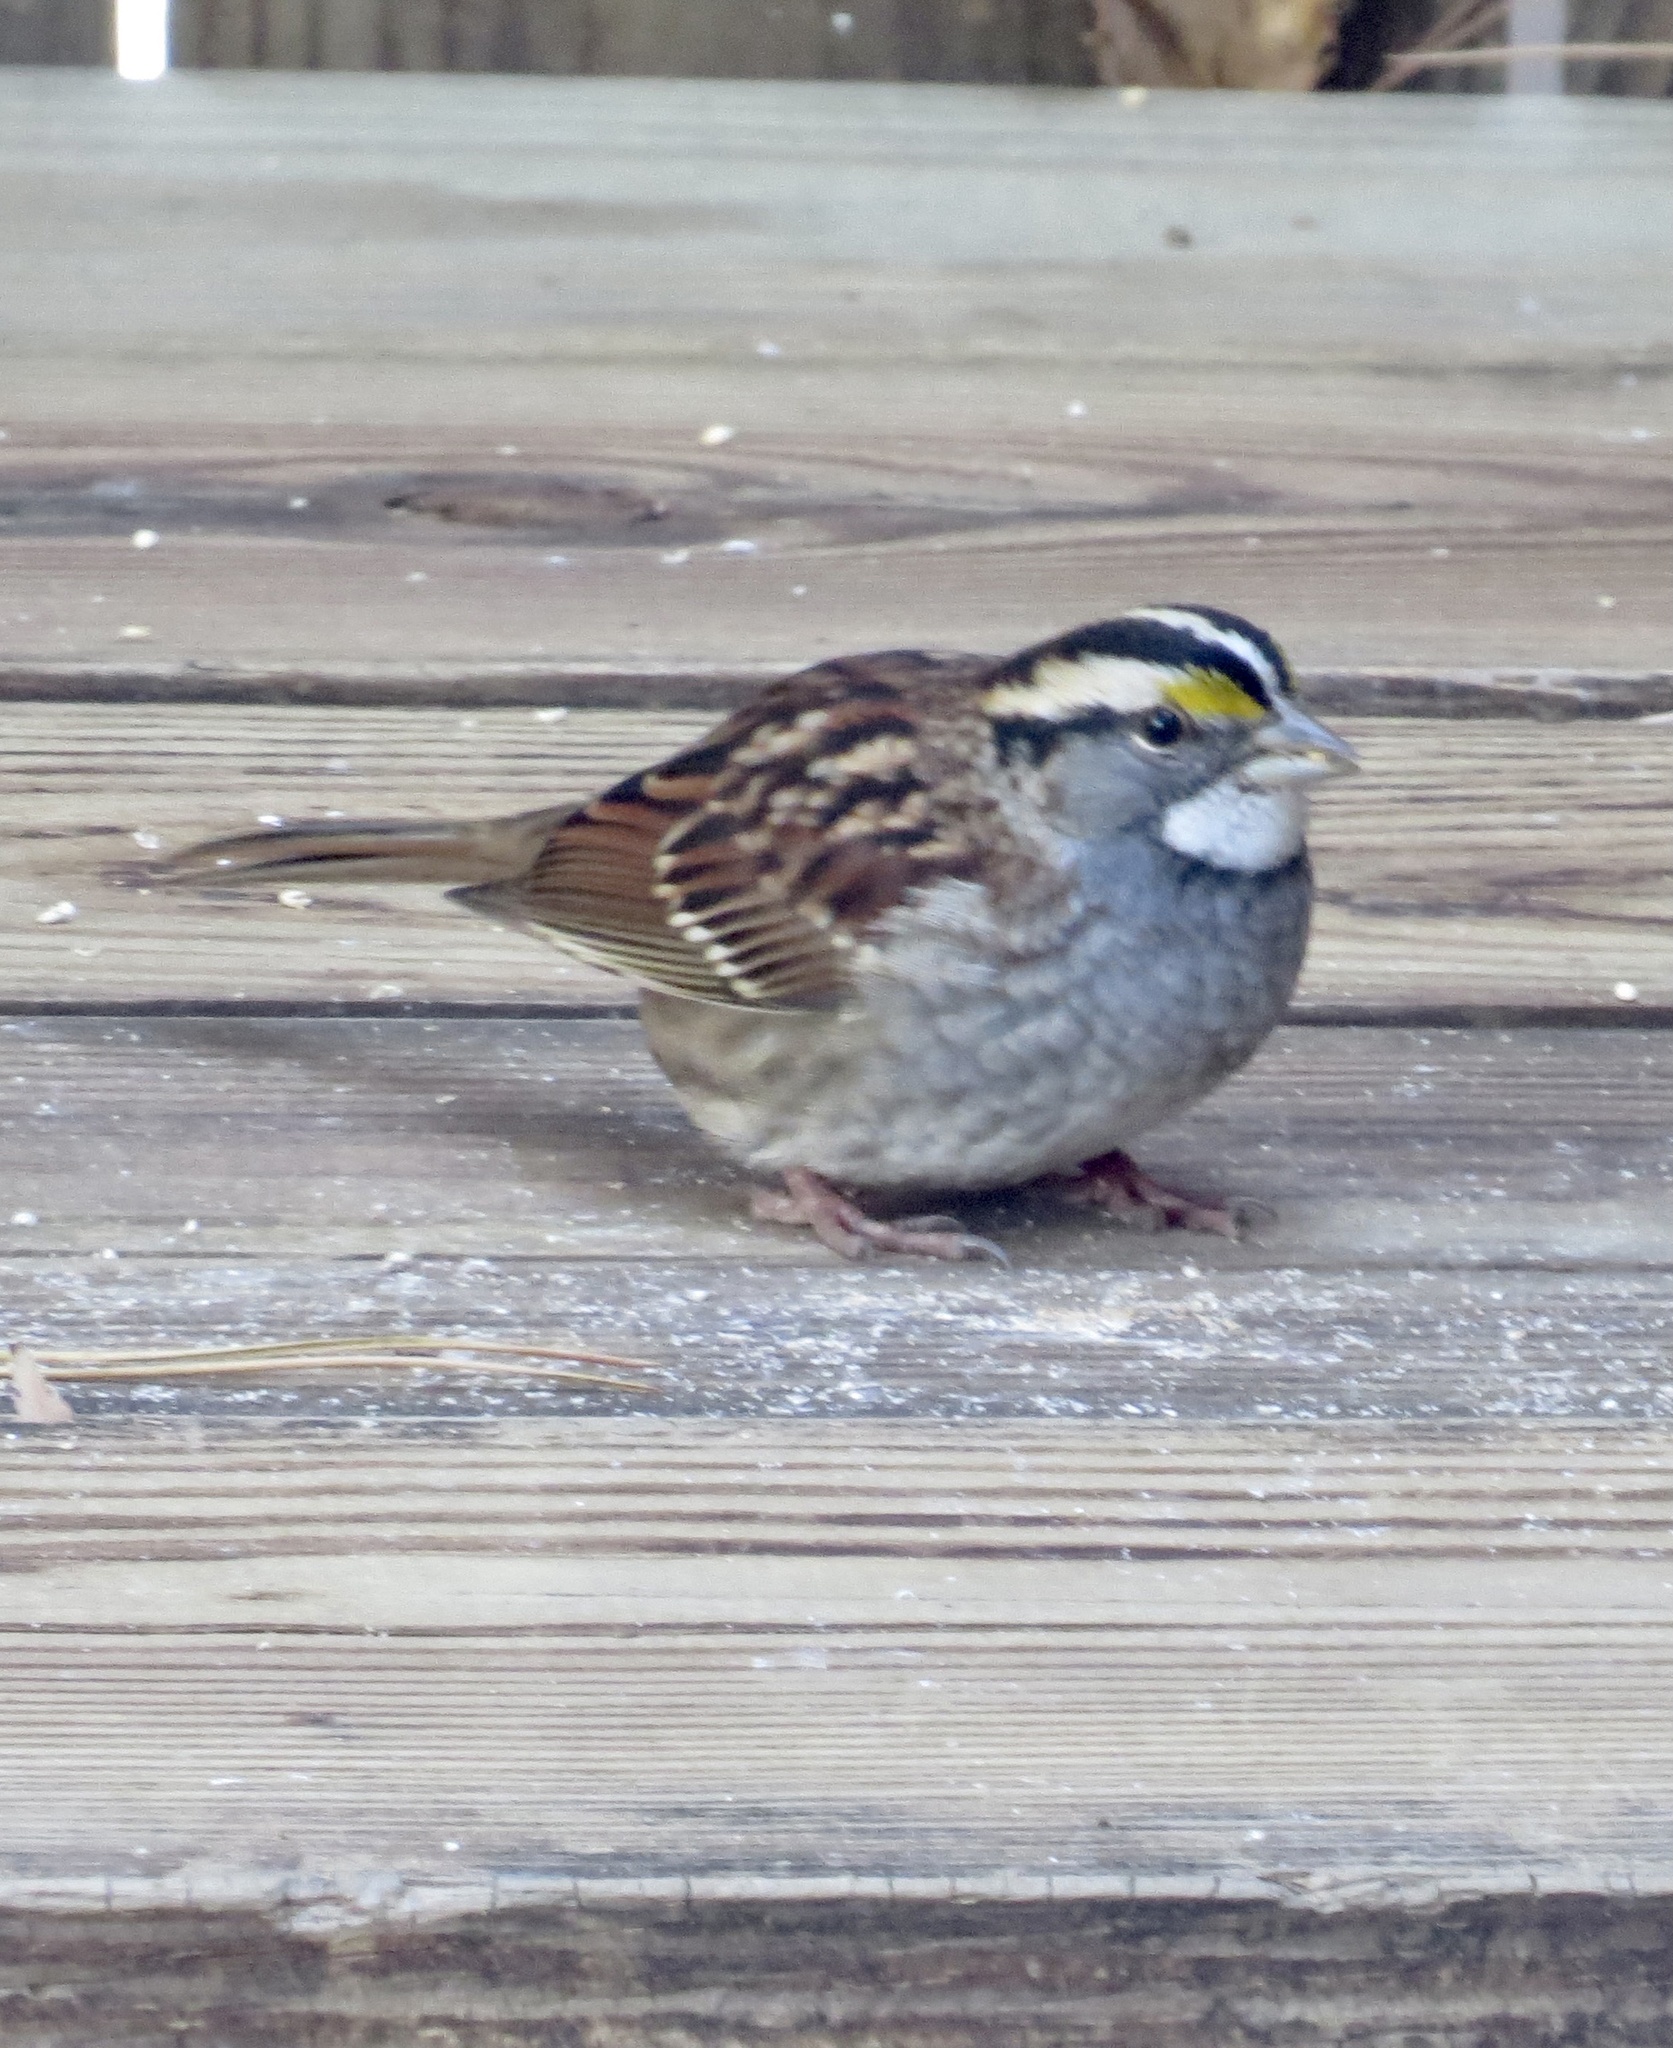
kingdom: Animalia
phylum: Chordata
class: Aves
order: Passeriformes
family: Passerellidae
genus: Zonotrichia
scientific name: Zonotrichia albicollis
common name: White-throated sparrow
